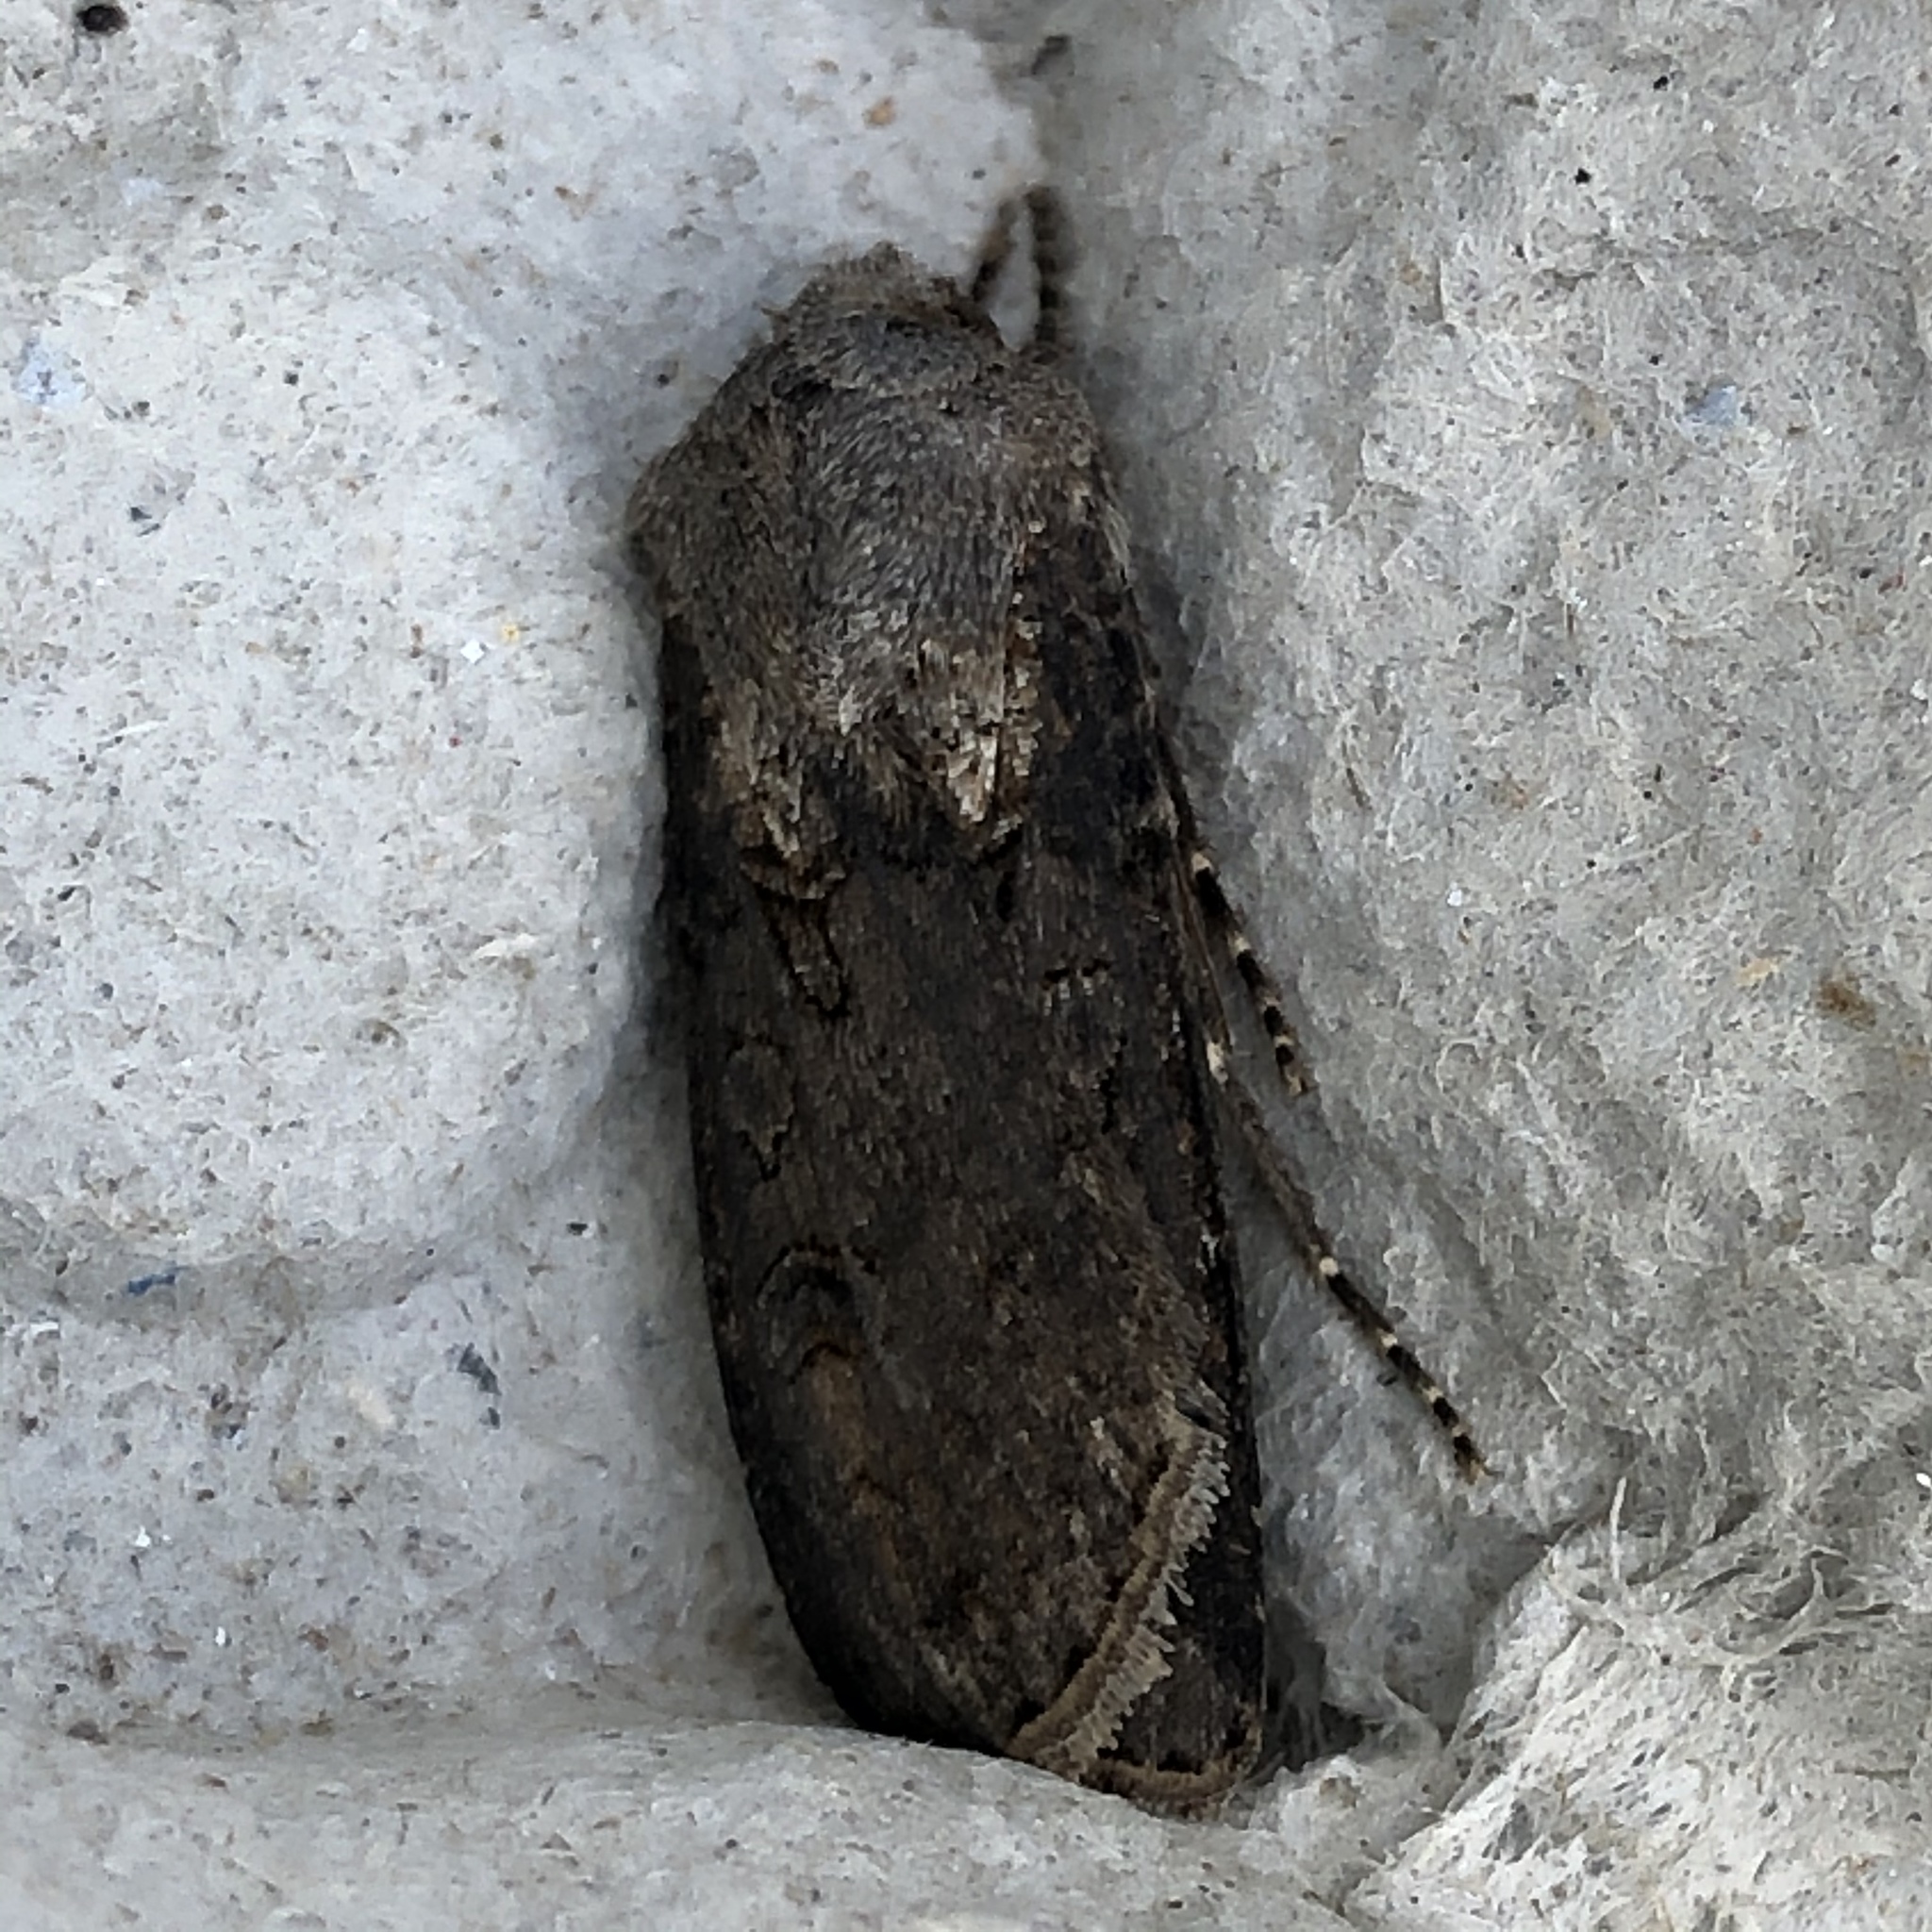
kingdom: Animalia
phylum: Arthropoda
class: Insecta
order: Lepidoptera
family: Noctuidae
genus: Agrotis
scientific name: Agrotis segetum
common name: Turnip moth
